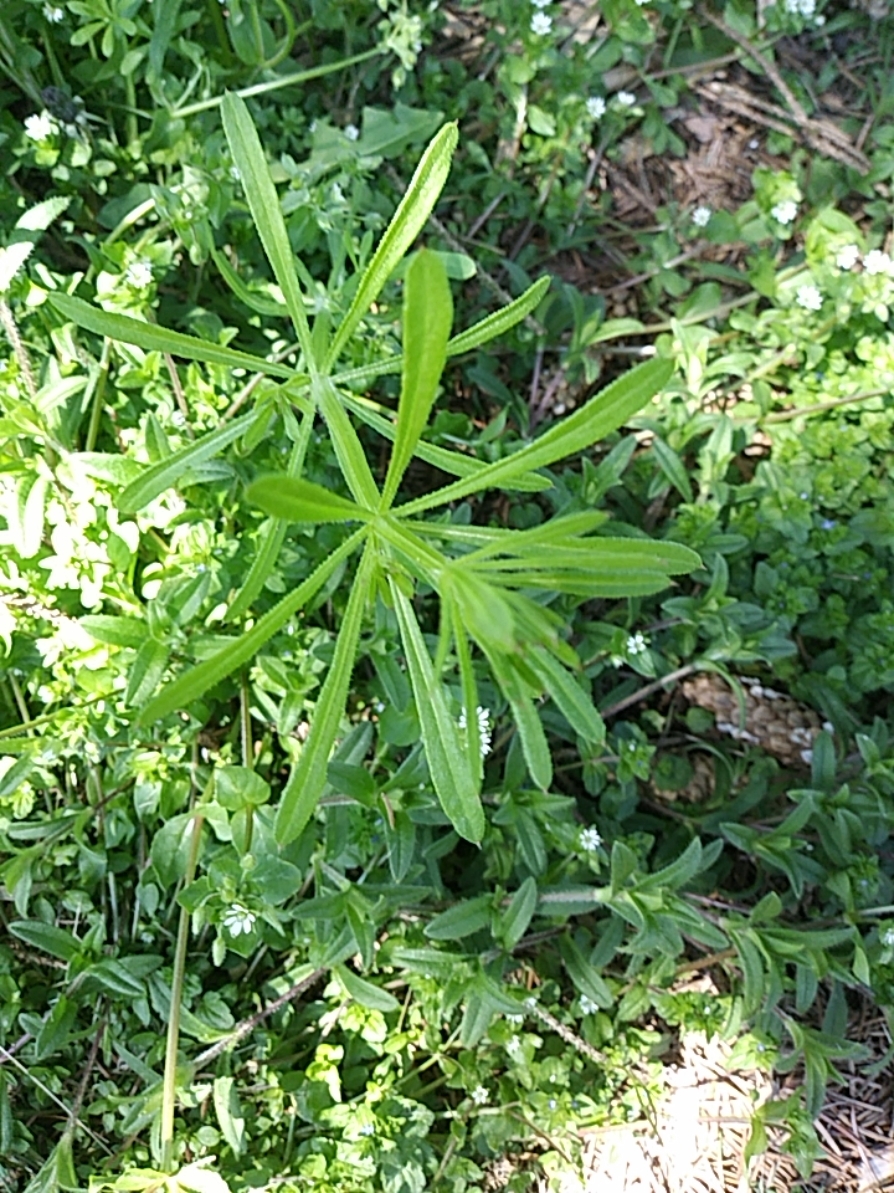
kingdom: Plantae
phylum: Tracheophyta
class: Magnoliopsida
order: Gentianales
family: Rubiaceae
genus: Galium
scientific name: Galium aparine
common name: Cleavers
